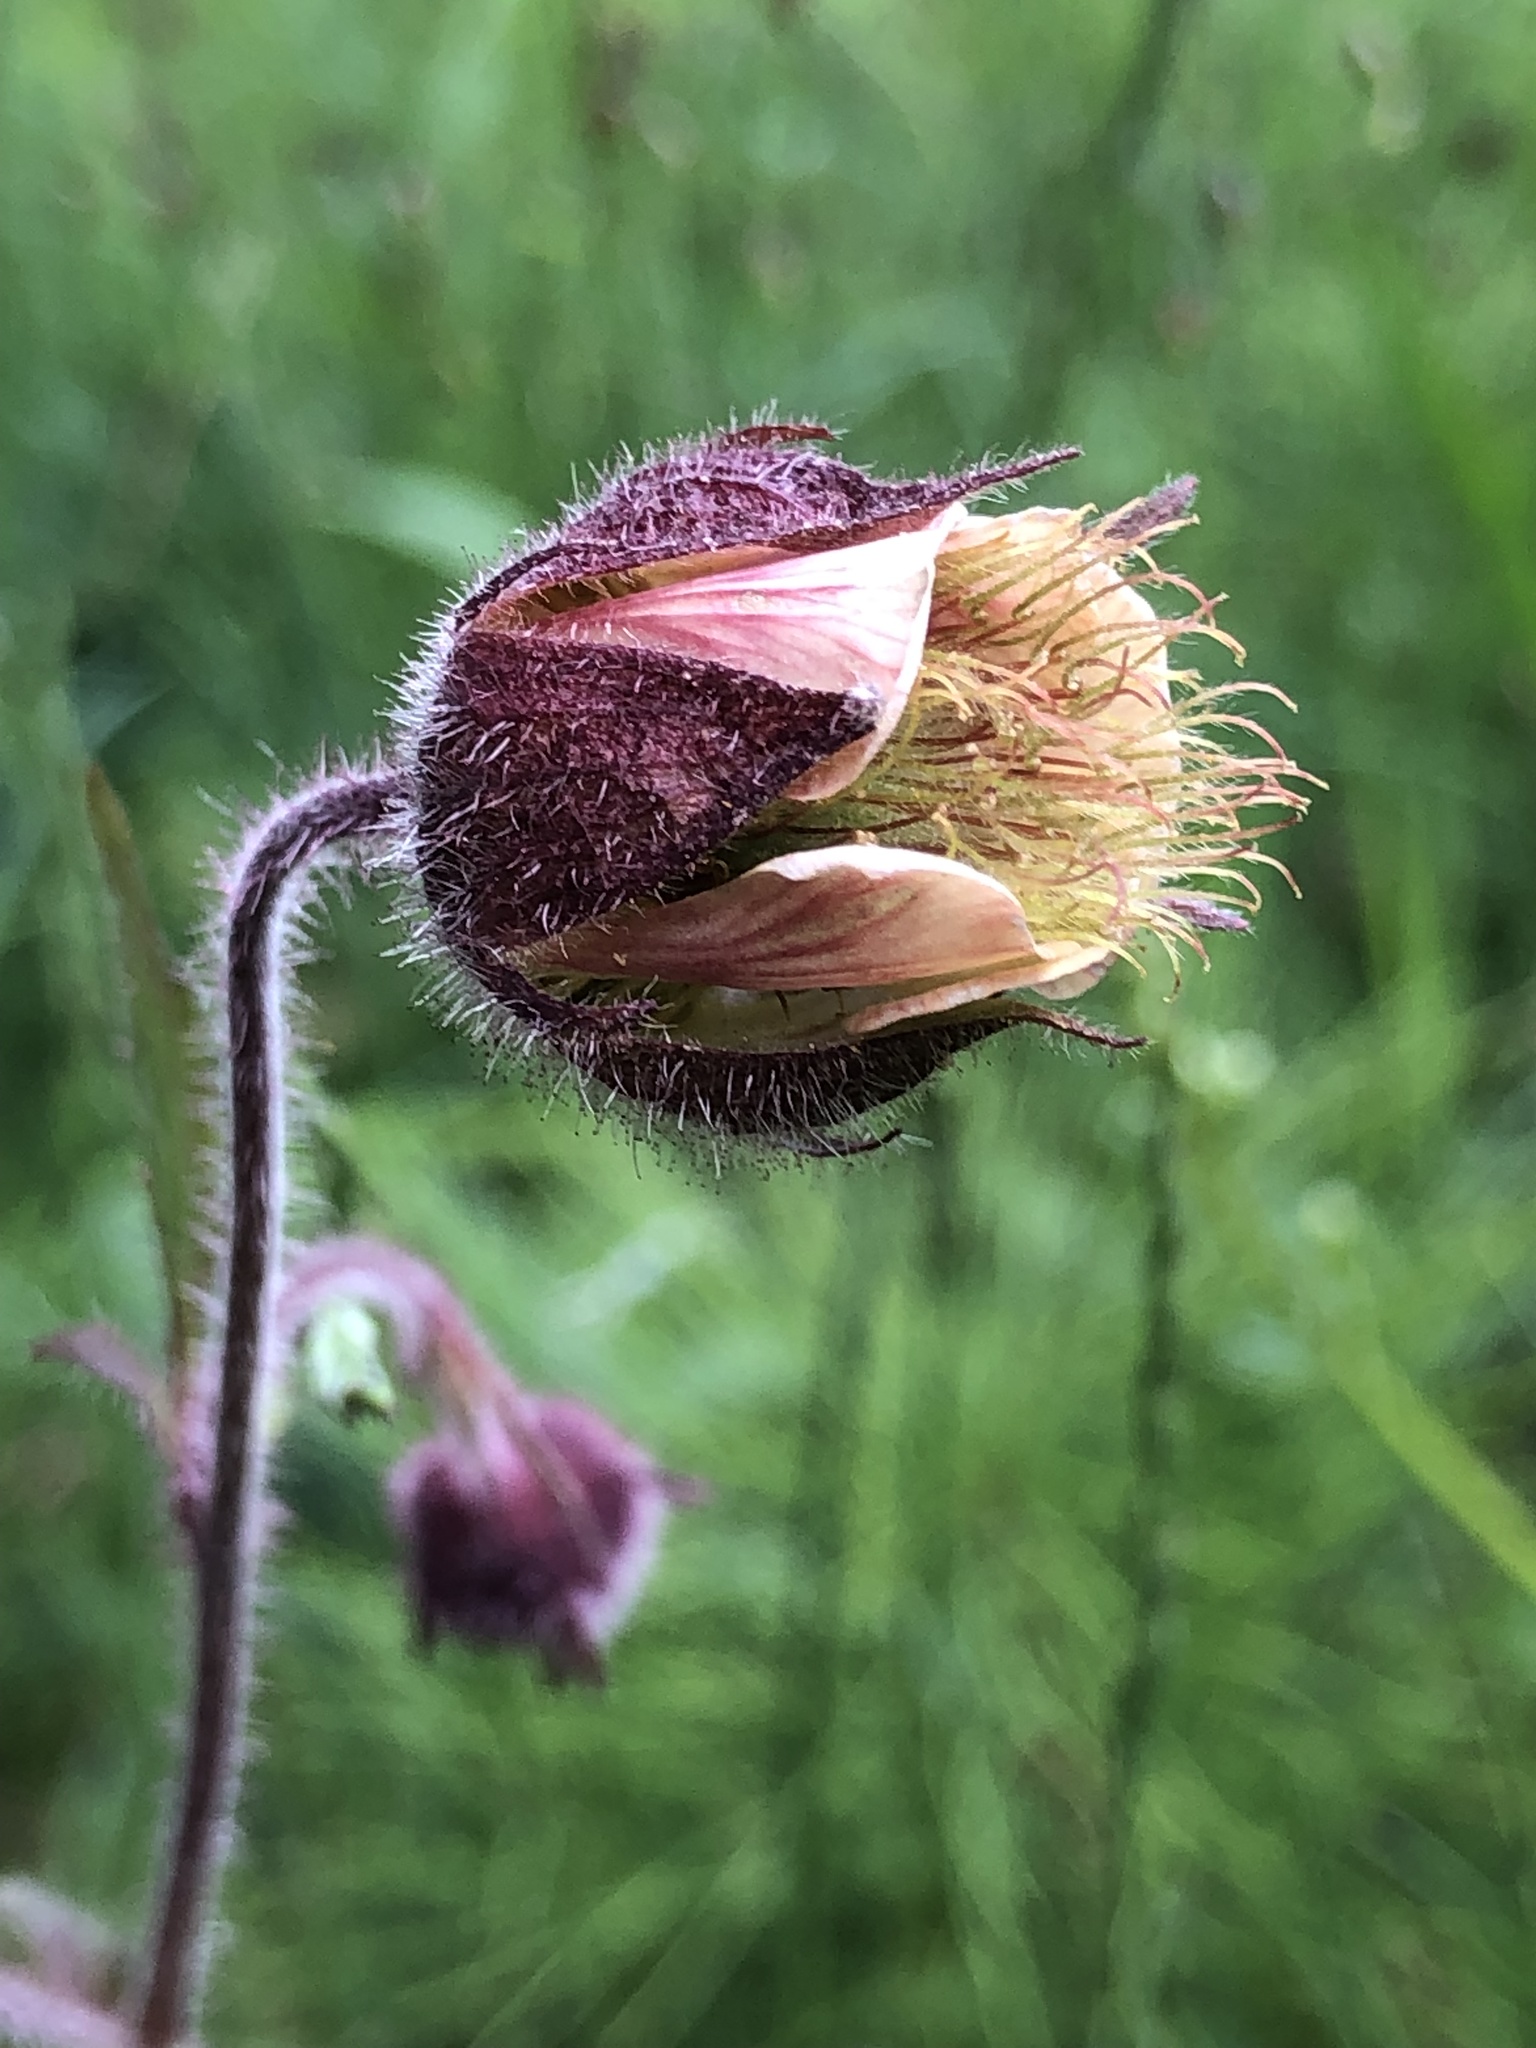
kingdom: Plantae
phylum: Tracheophyta
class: Magnoliopsida
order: Rosales
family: Rosaceae
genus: Geum
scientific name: Geum rivale
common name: Water avens
